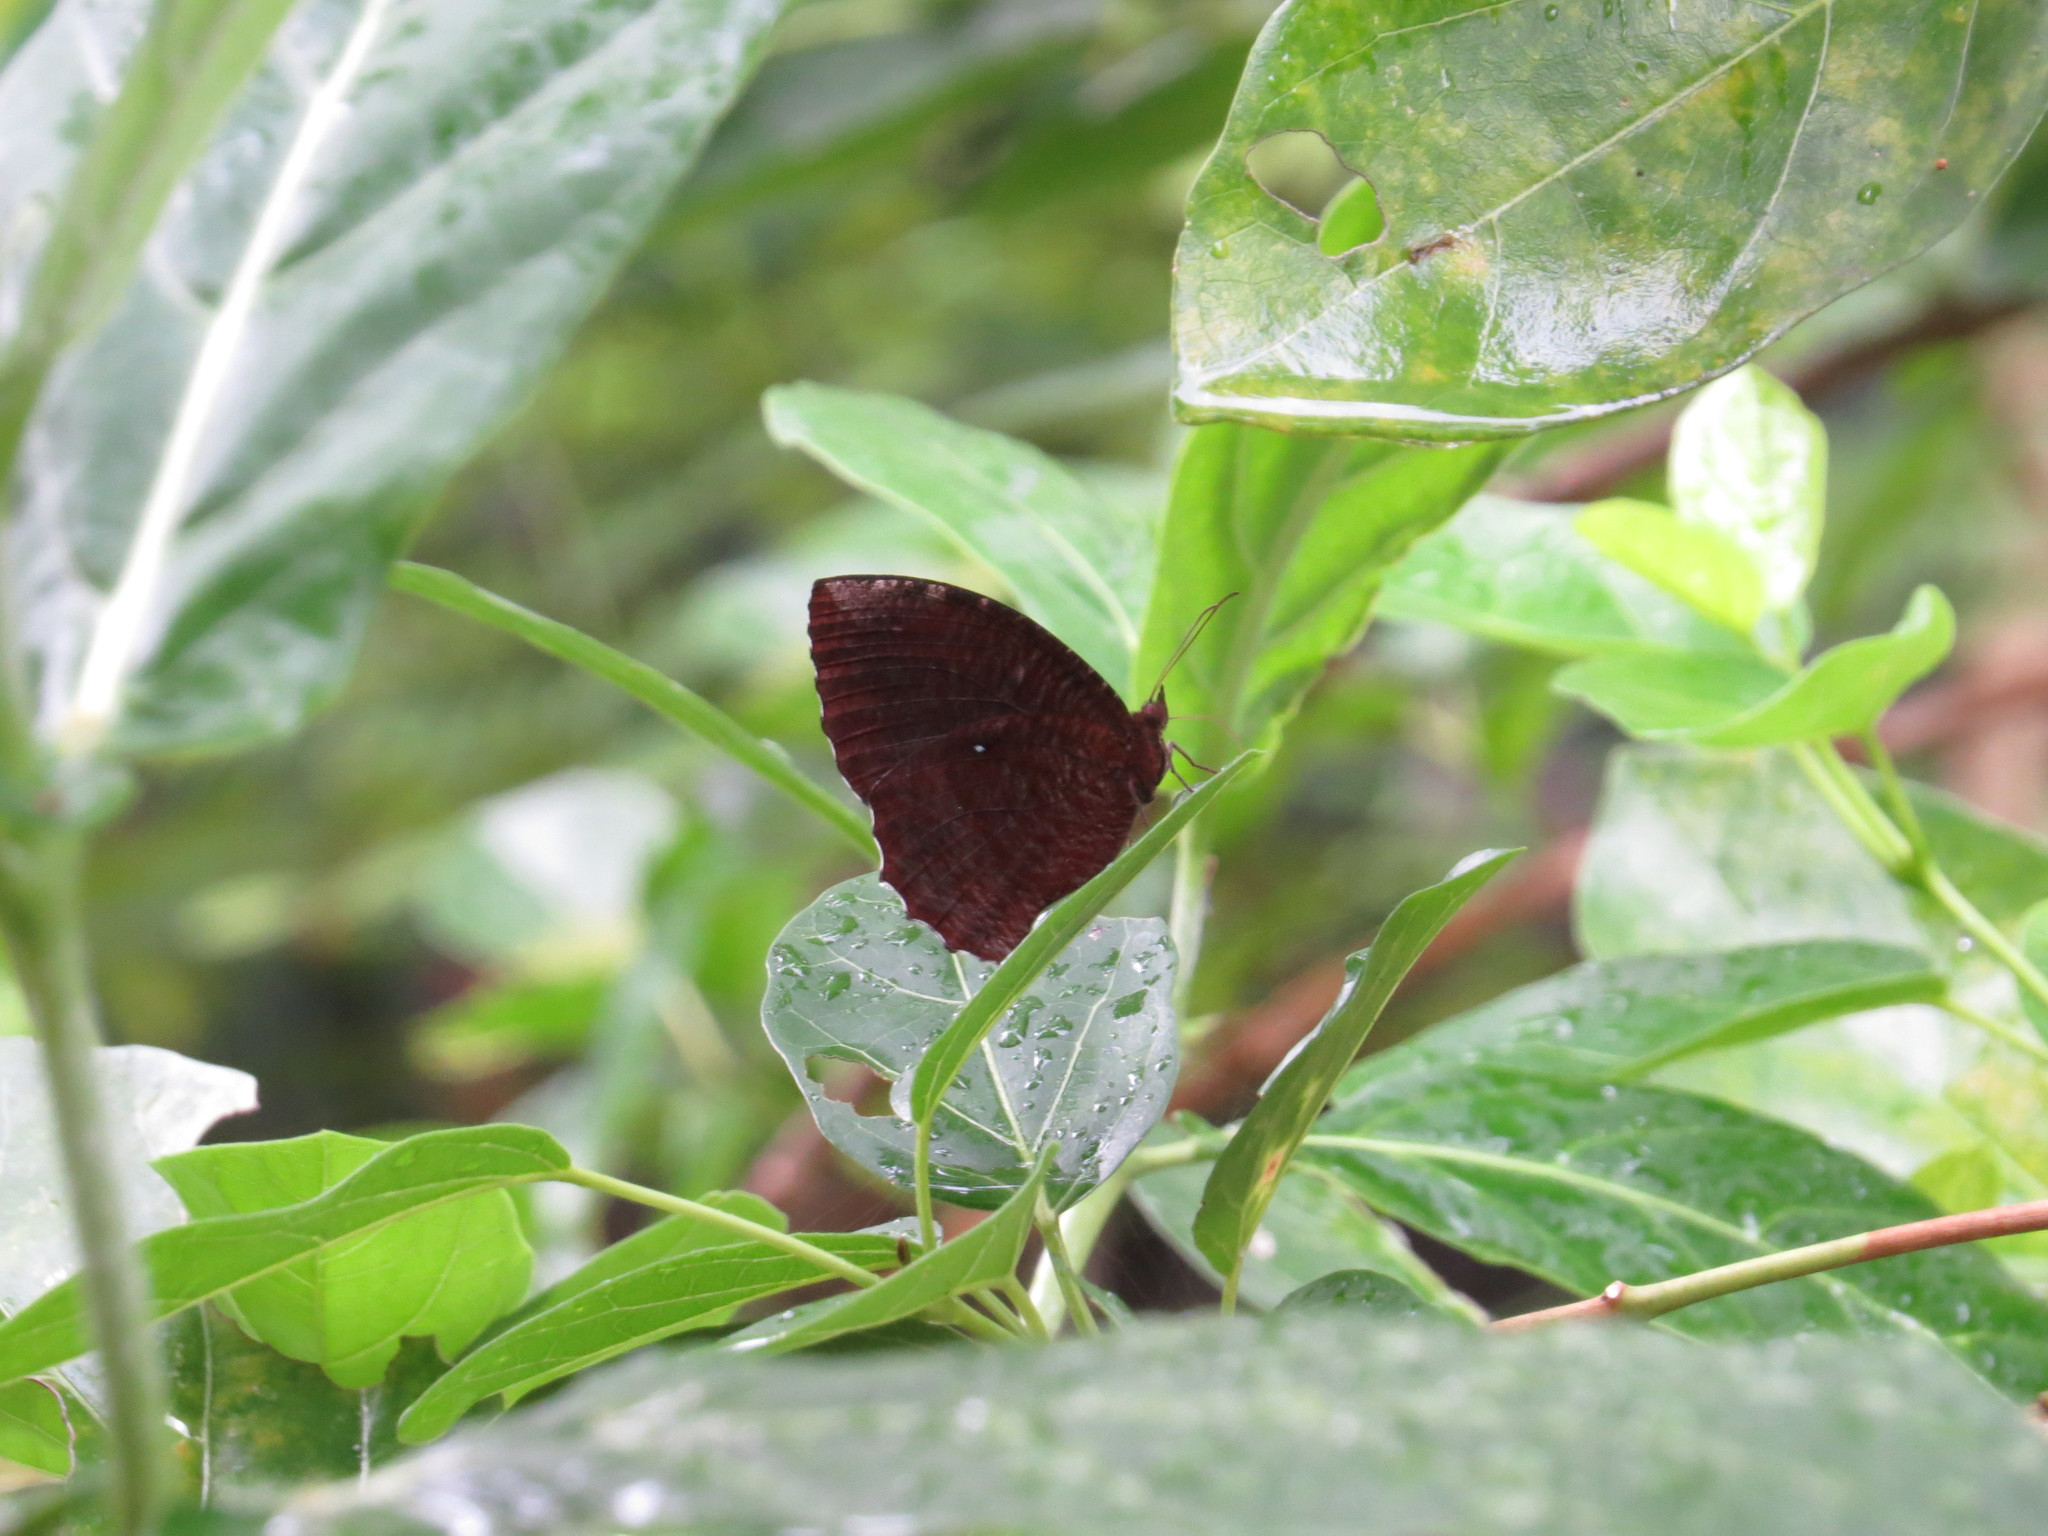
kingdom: Animalia
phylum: Arthropoda
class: Insecta
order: Lepidoptera
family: Nymphalidae
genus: Elymnias
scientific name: Elymnias hypermnestra
